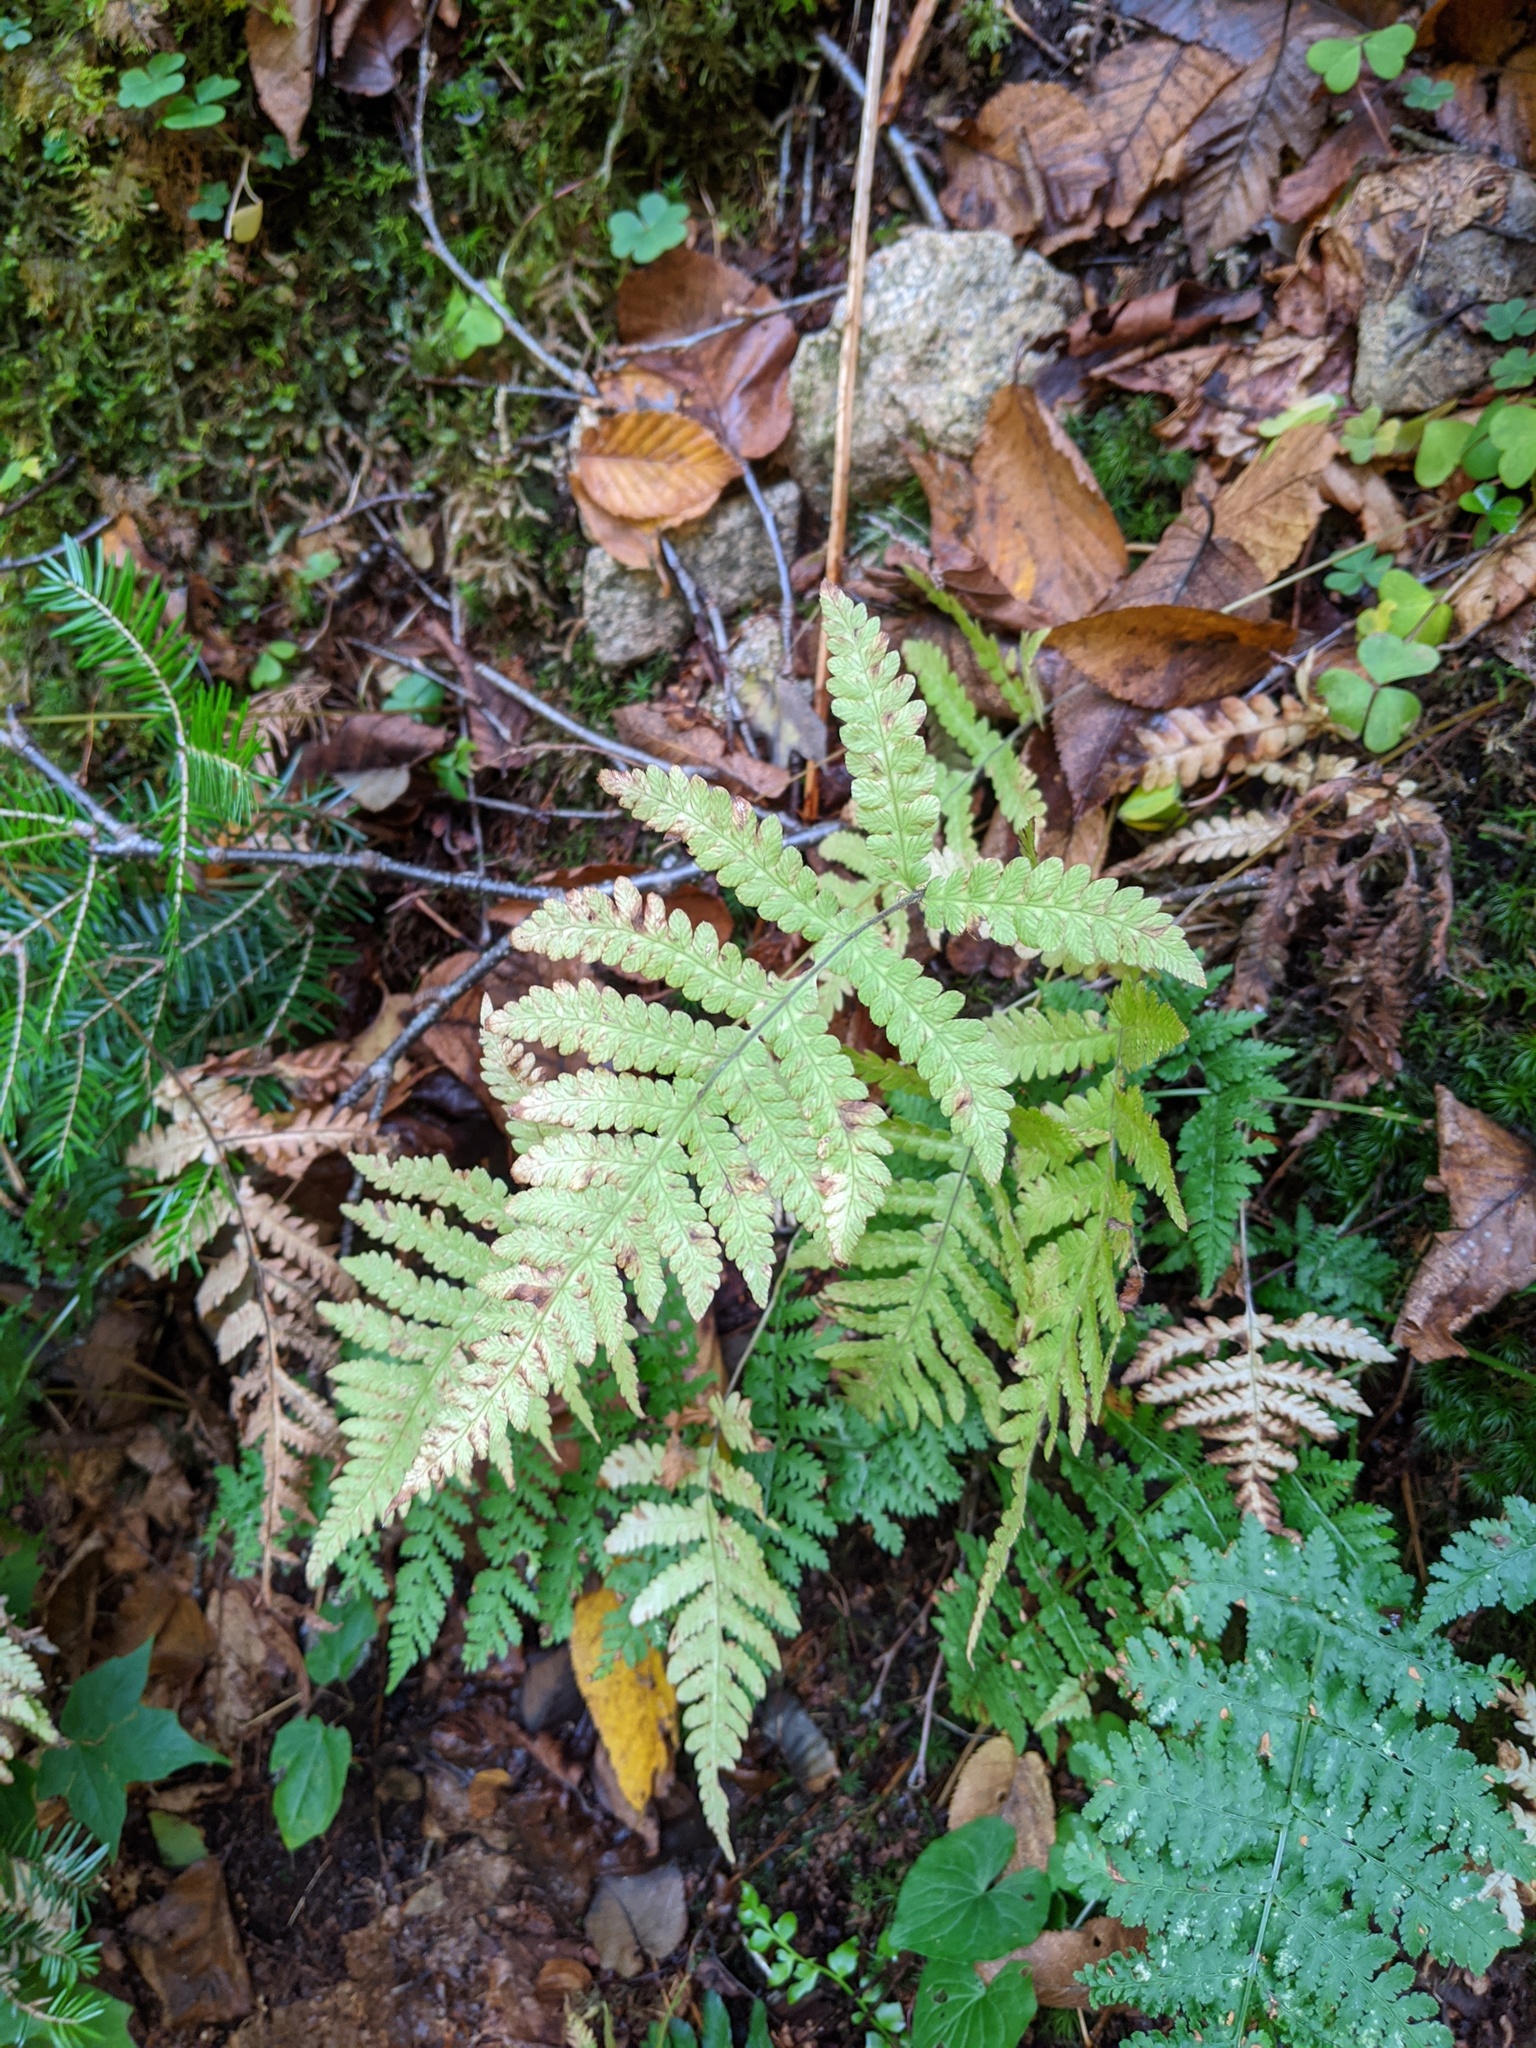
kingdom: Plantae
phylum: Tracheophyta
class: Polypodiopsida
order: Polypodiales
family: Thelypteridaceae
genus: Phegopteris
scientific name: Phegopteris connectilis
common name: Beech fern
